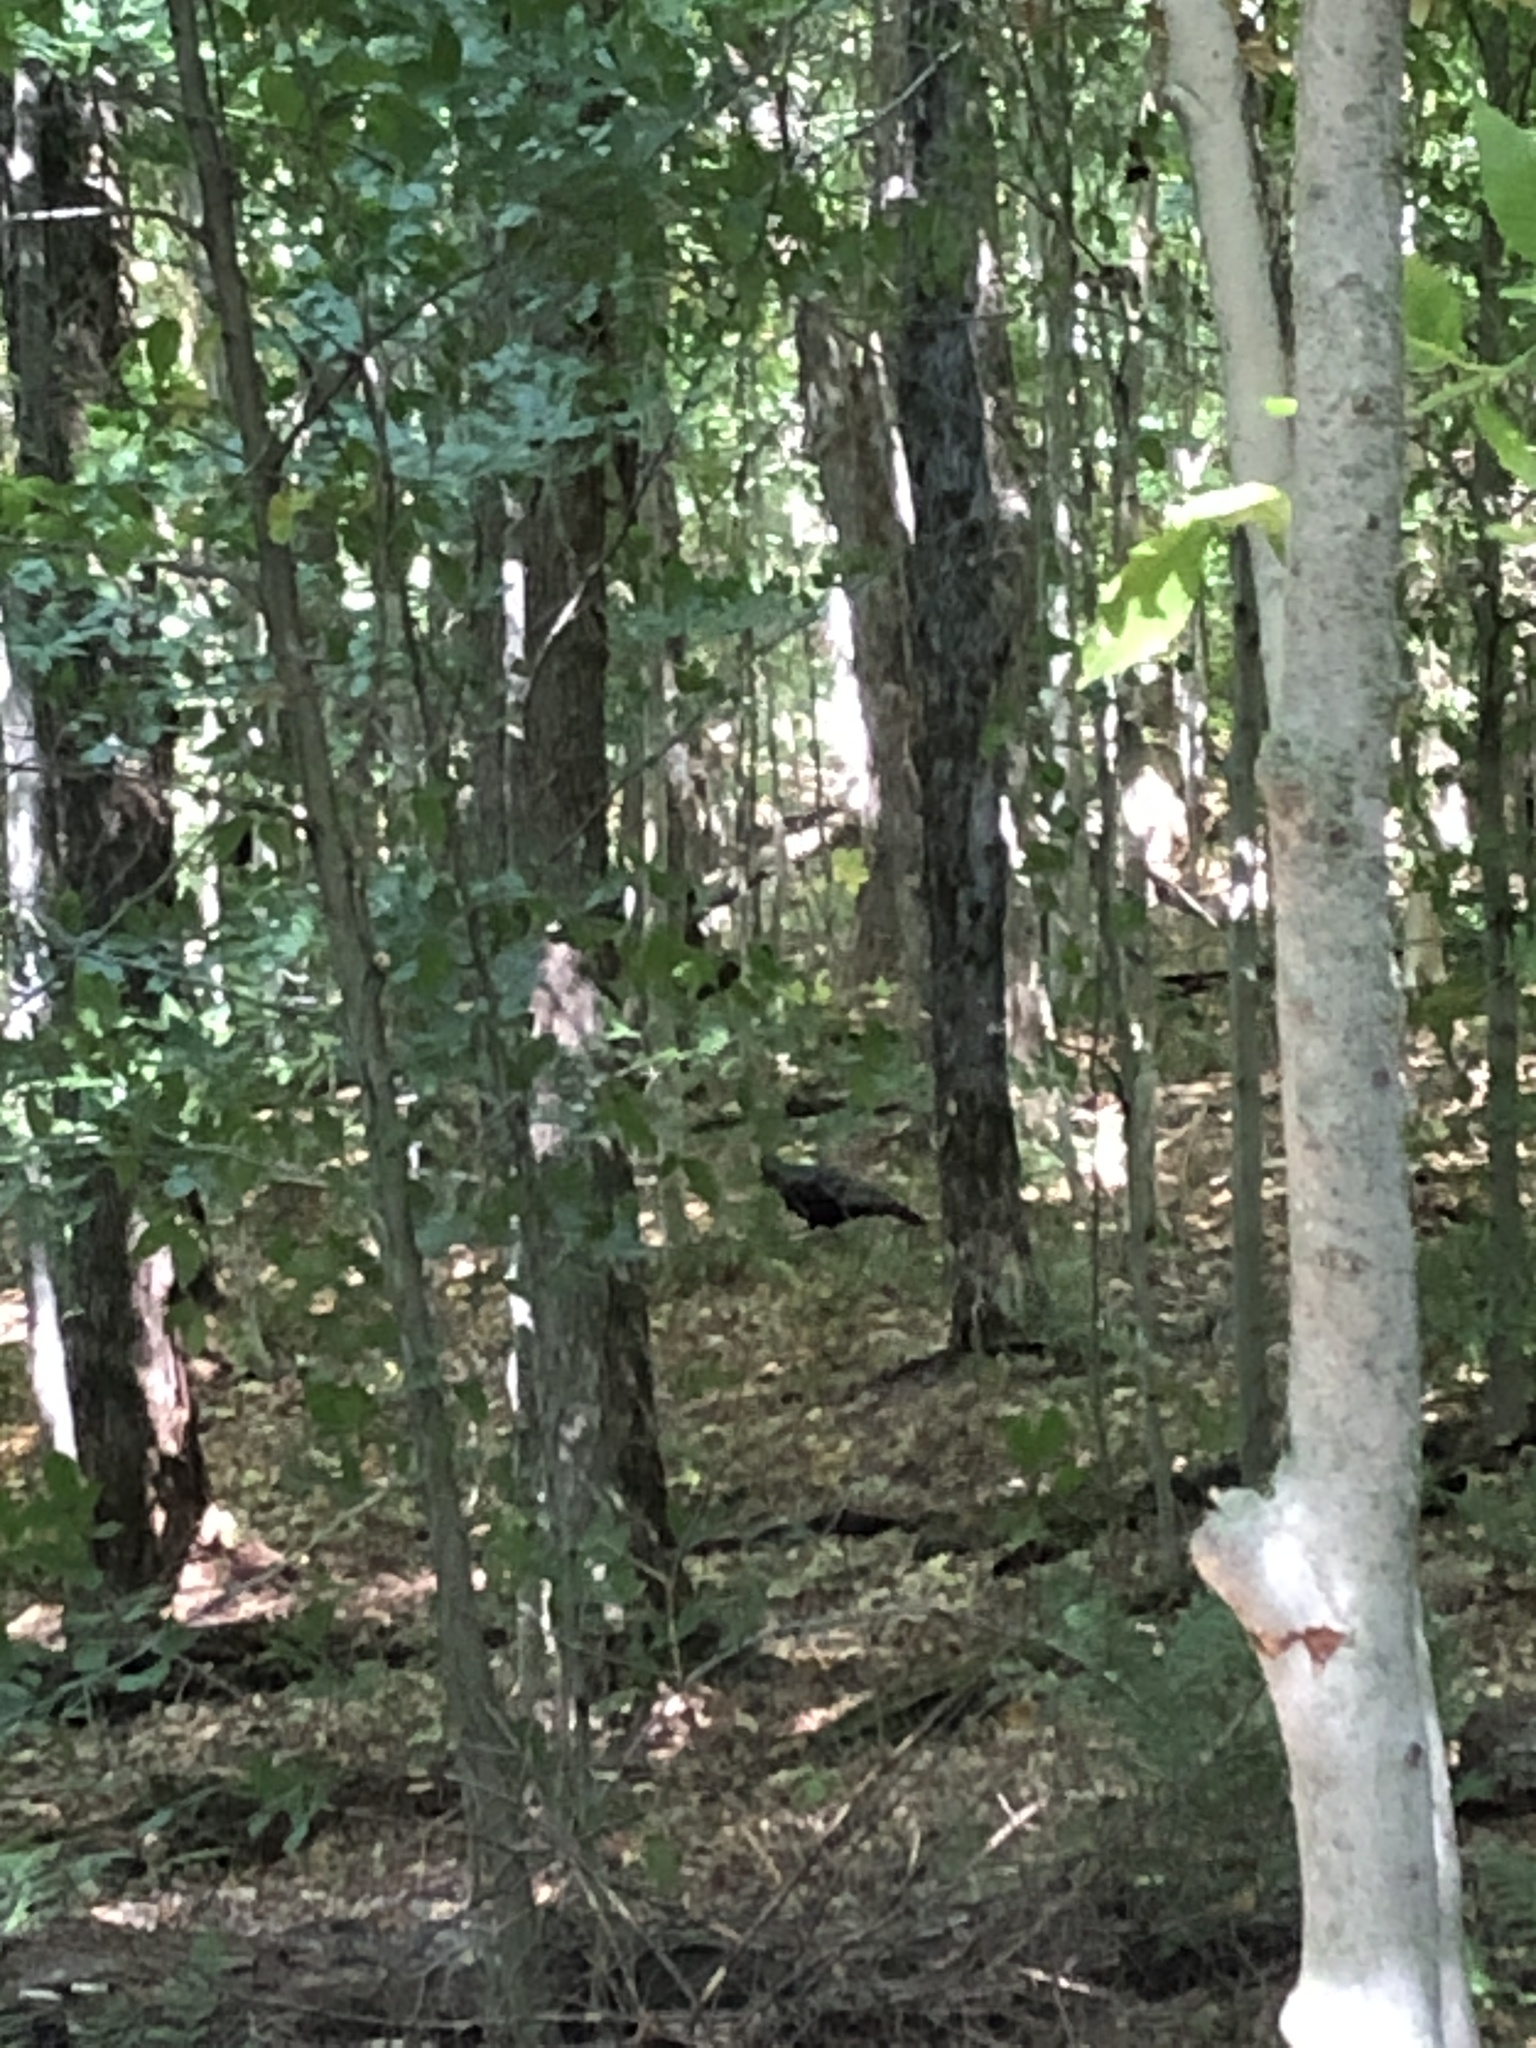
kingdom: Animalia
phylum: Chordata
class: Aves
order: Galliformes
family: Phasianidae
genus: Meleagris
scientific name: Meleagris gallopavo
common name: Wild turkey
